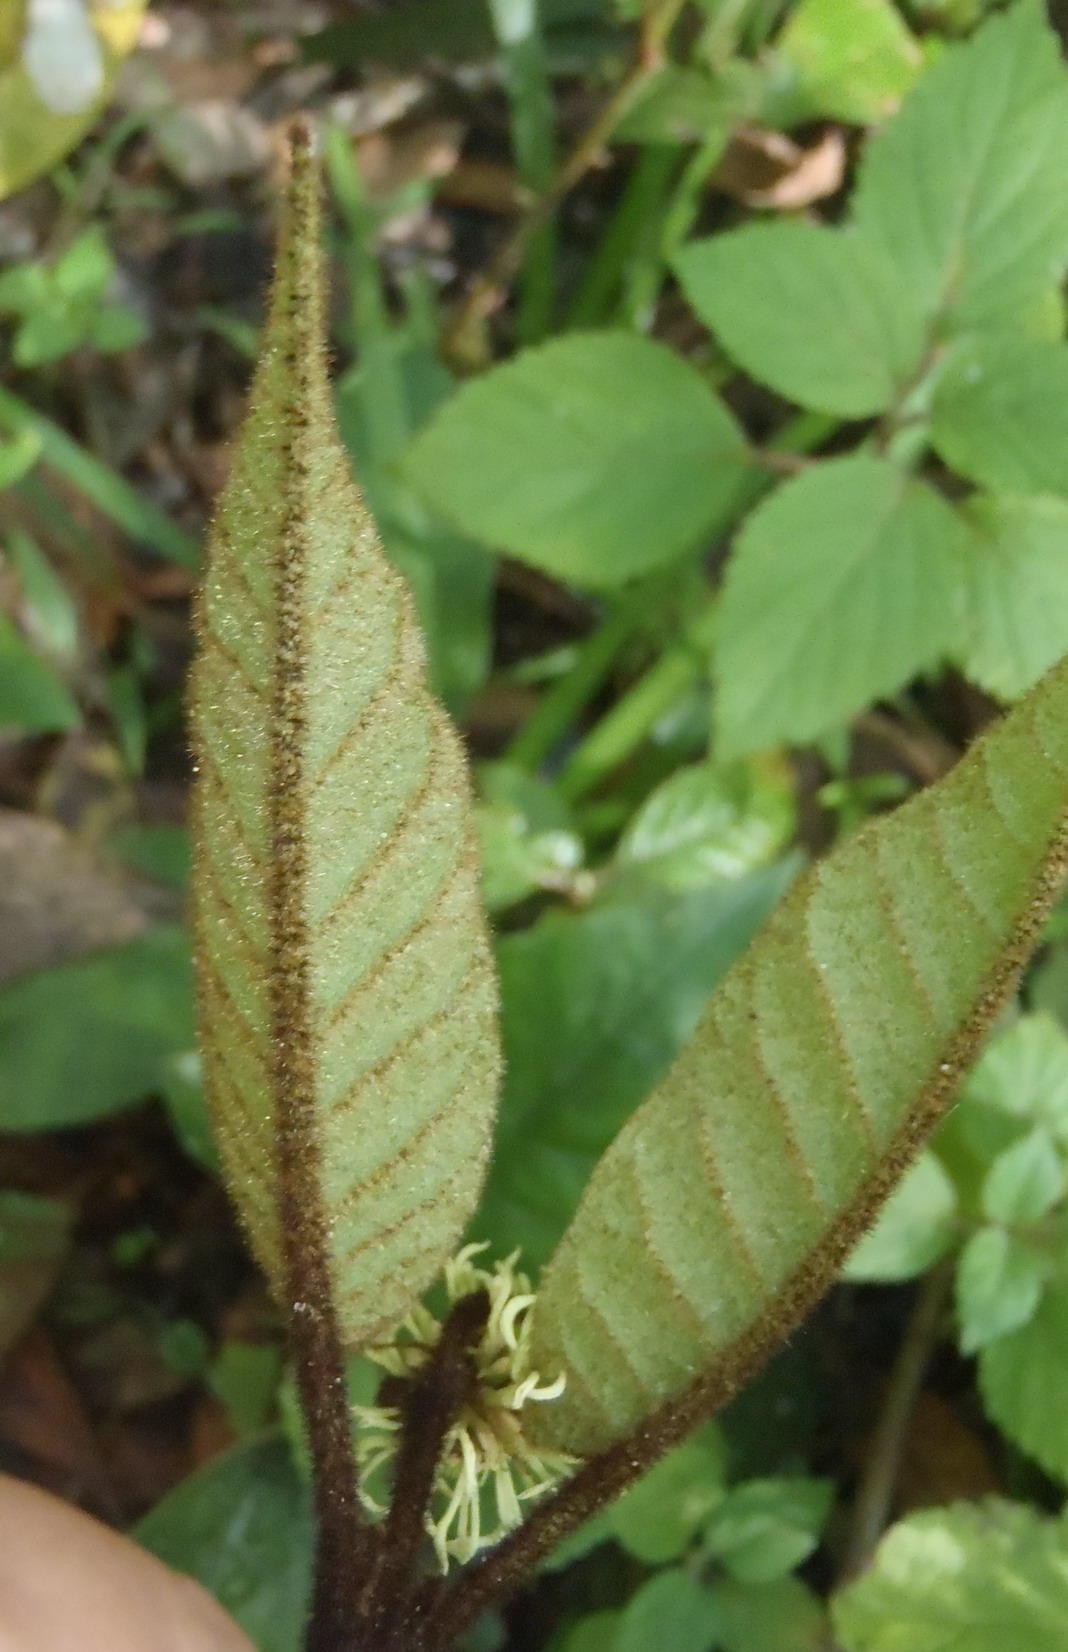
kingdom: Plantae
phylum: Tracheophyta
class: Magnoliopsida
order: Saxifragales
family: Hamamelidaceae
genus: Trichocladus
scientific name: Trichocladus crinitus
